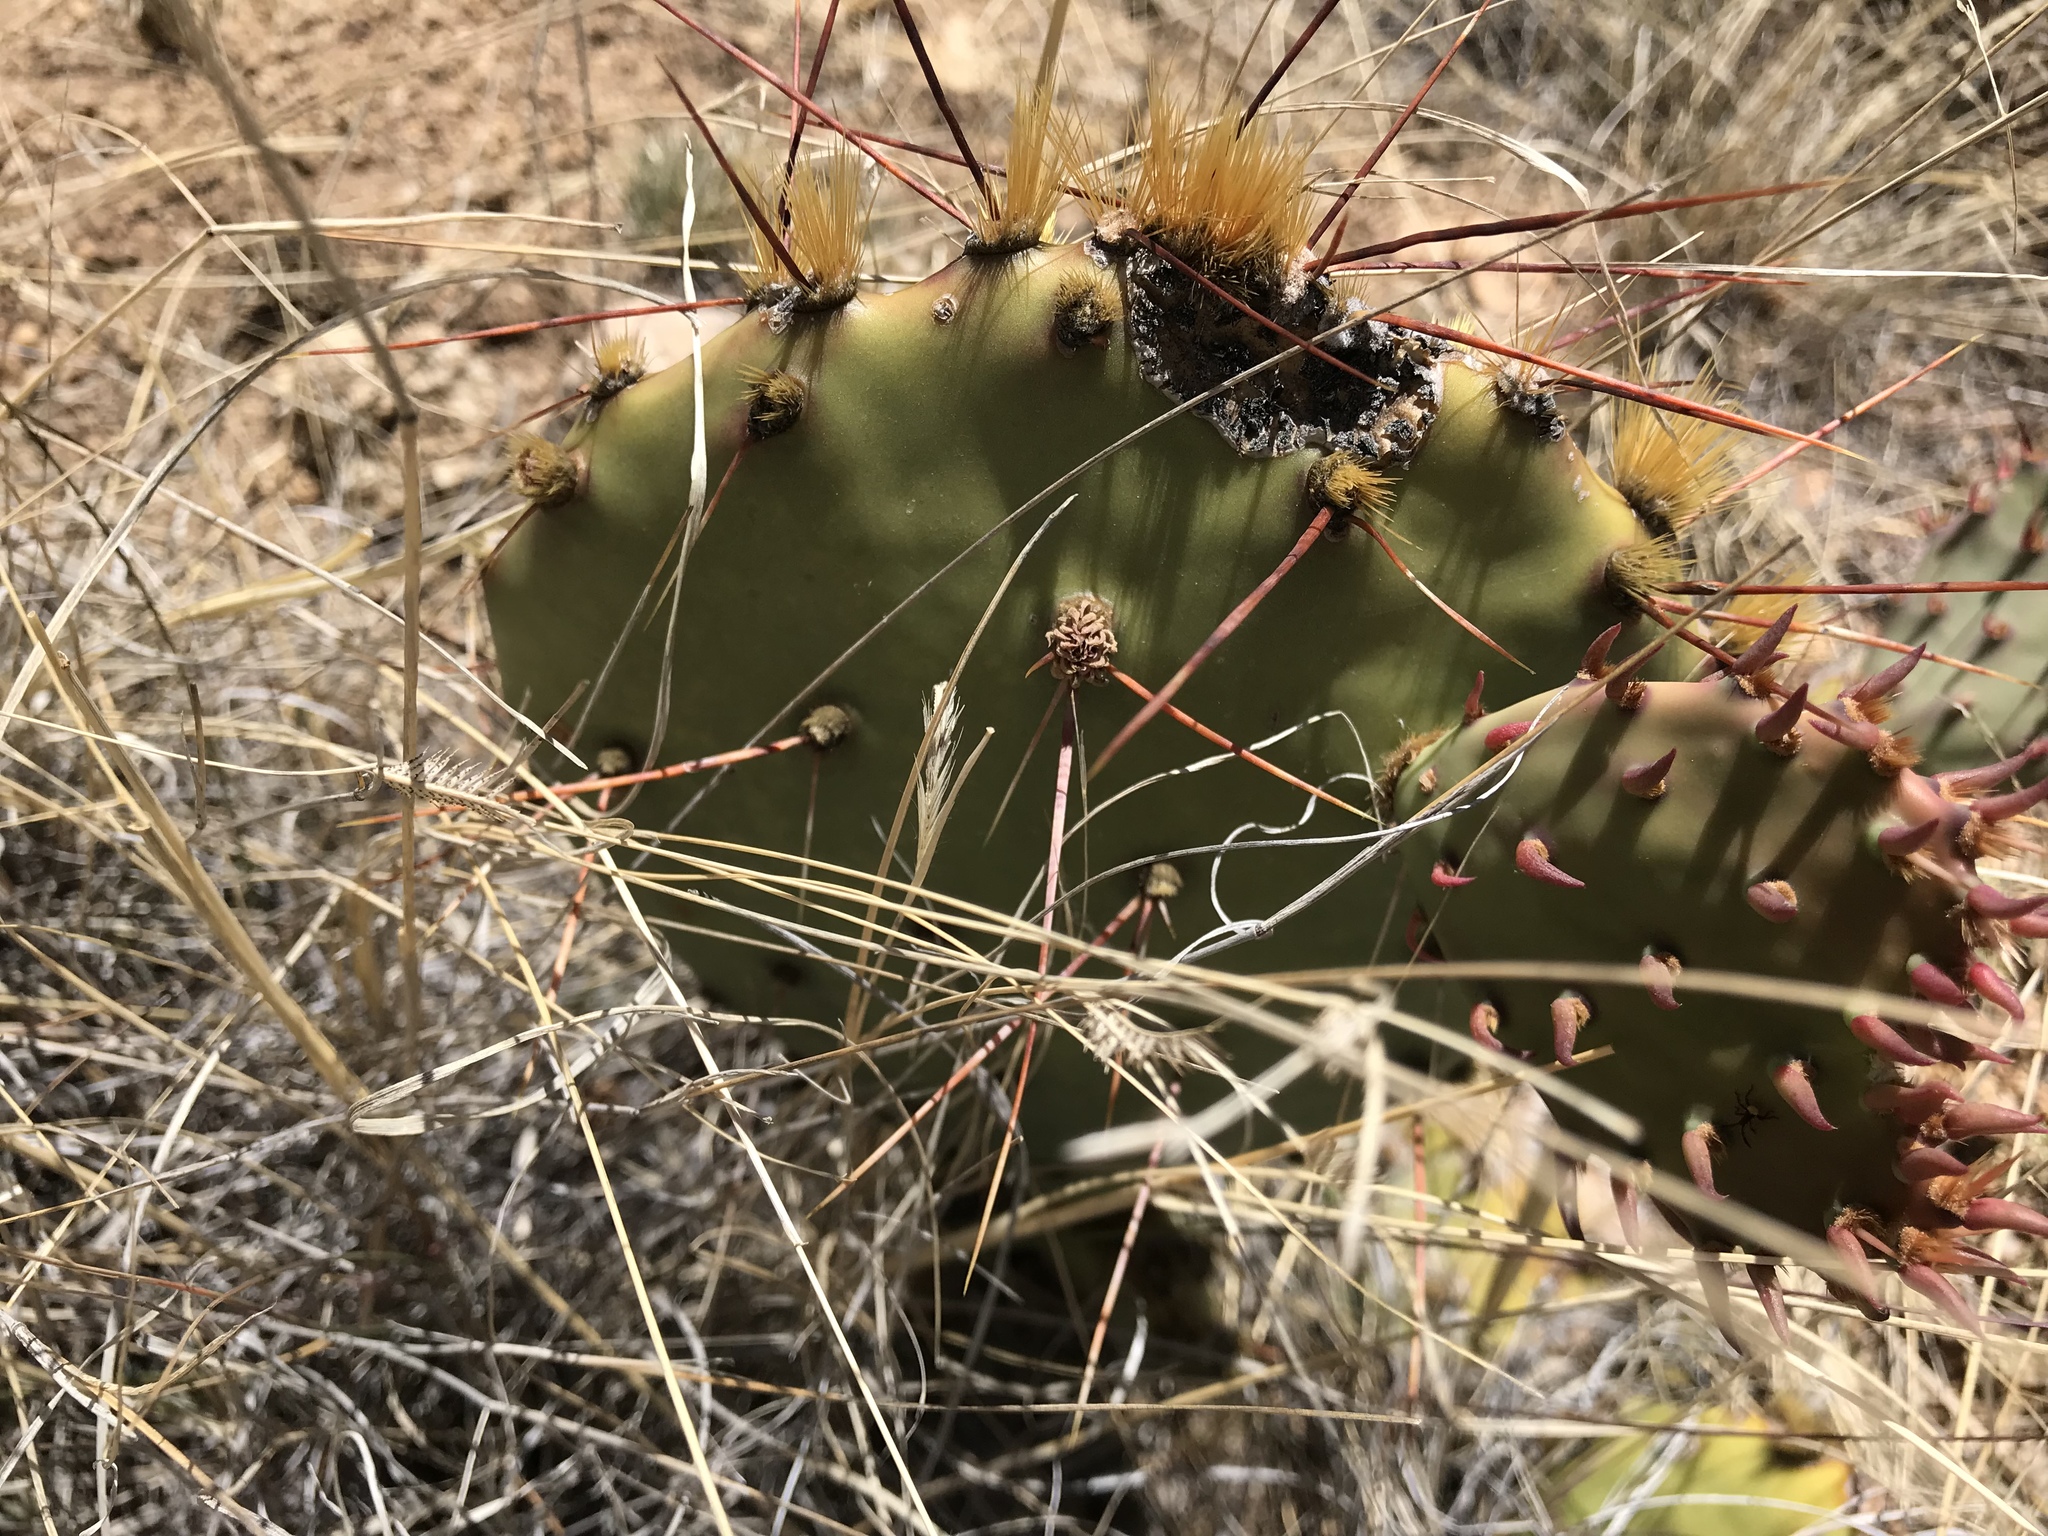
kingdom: Plantae
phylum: Tracheophyta
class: Magnoliopsida
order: Caryophyllales
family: Cactaceae
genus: Opuntia
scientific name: Opuntia phaeacantha
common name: New mexico prickly-pear
